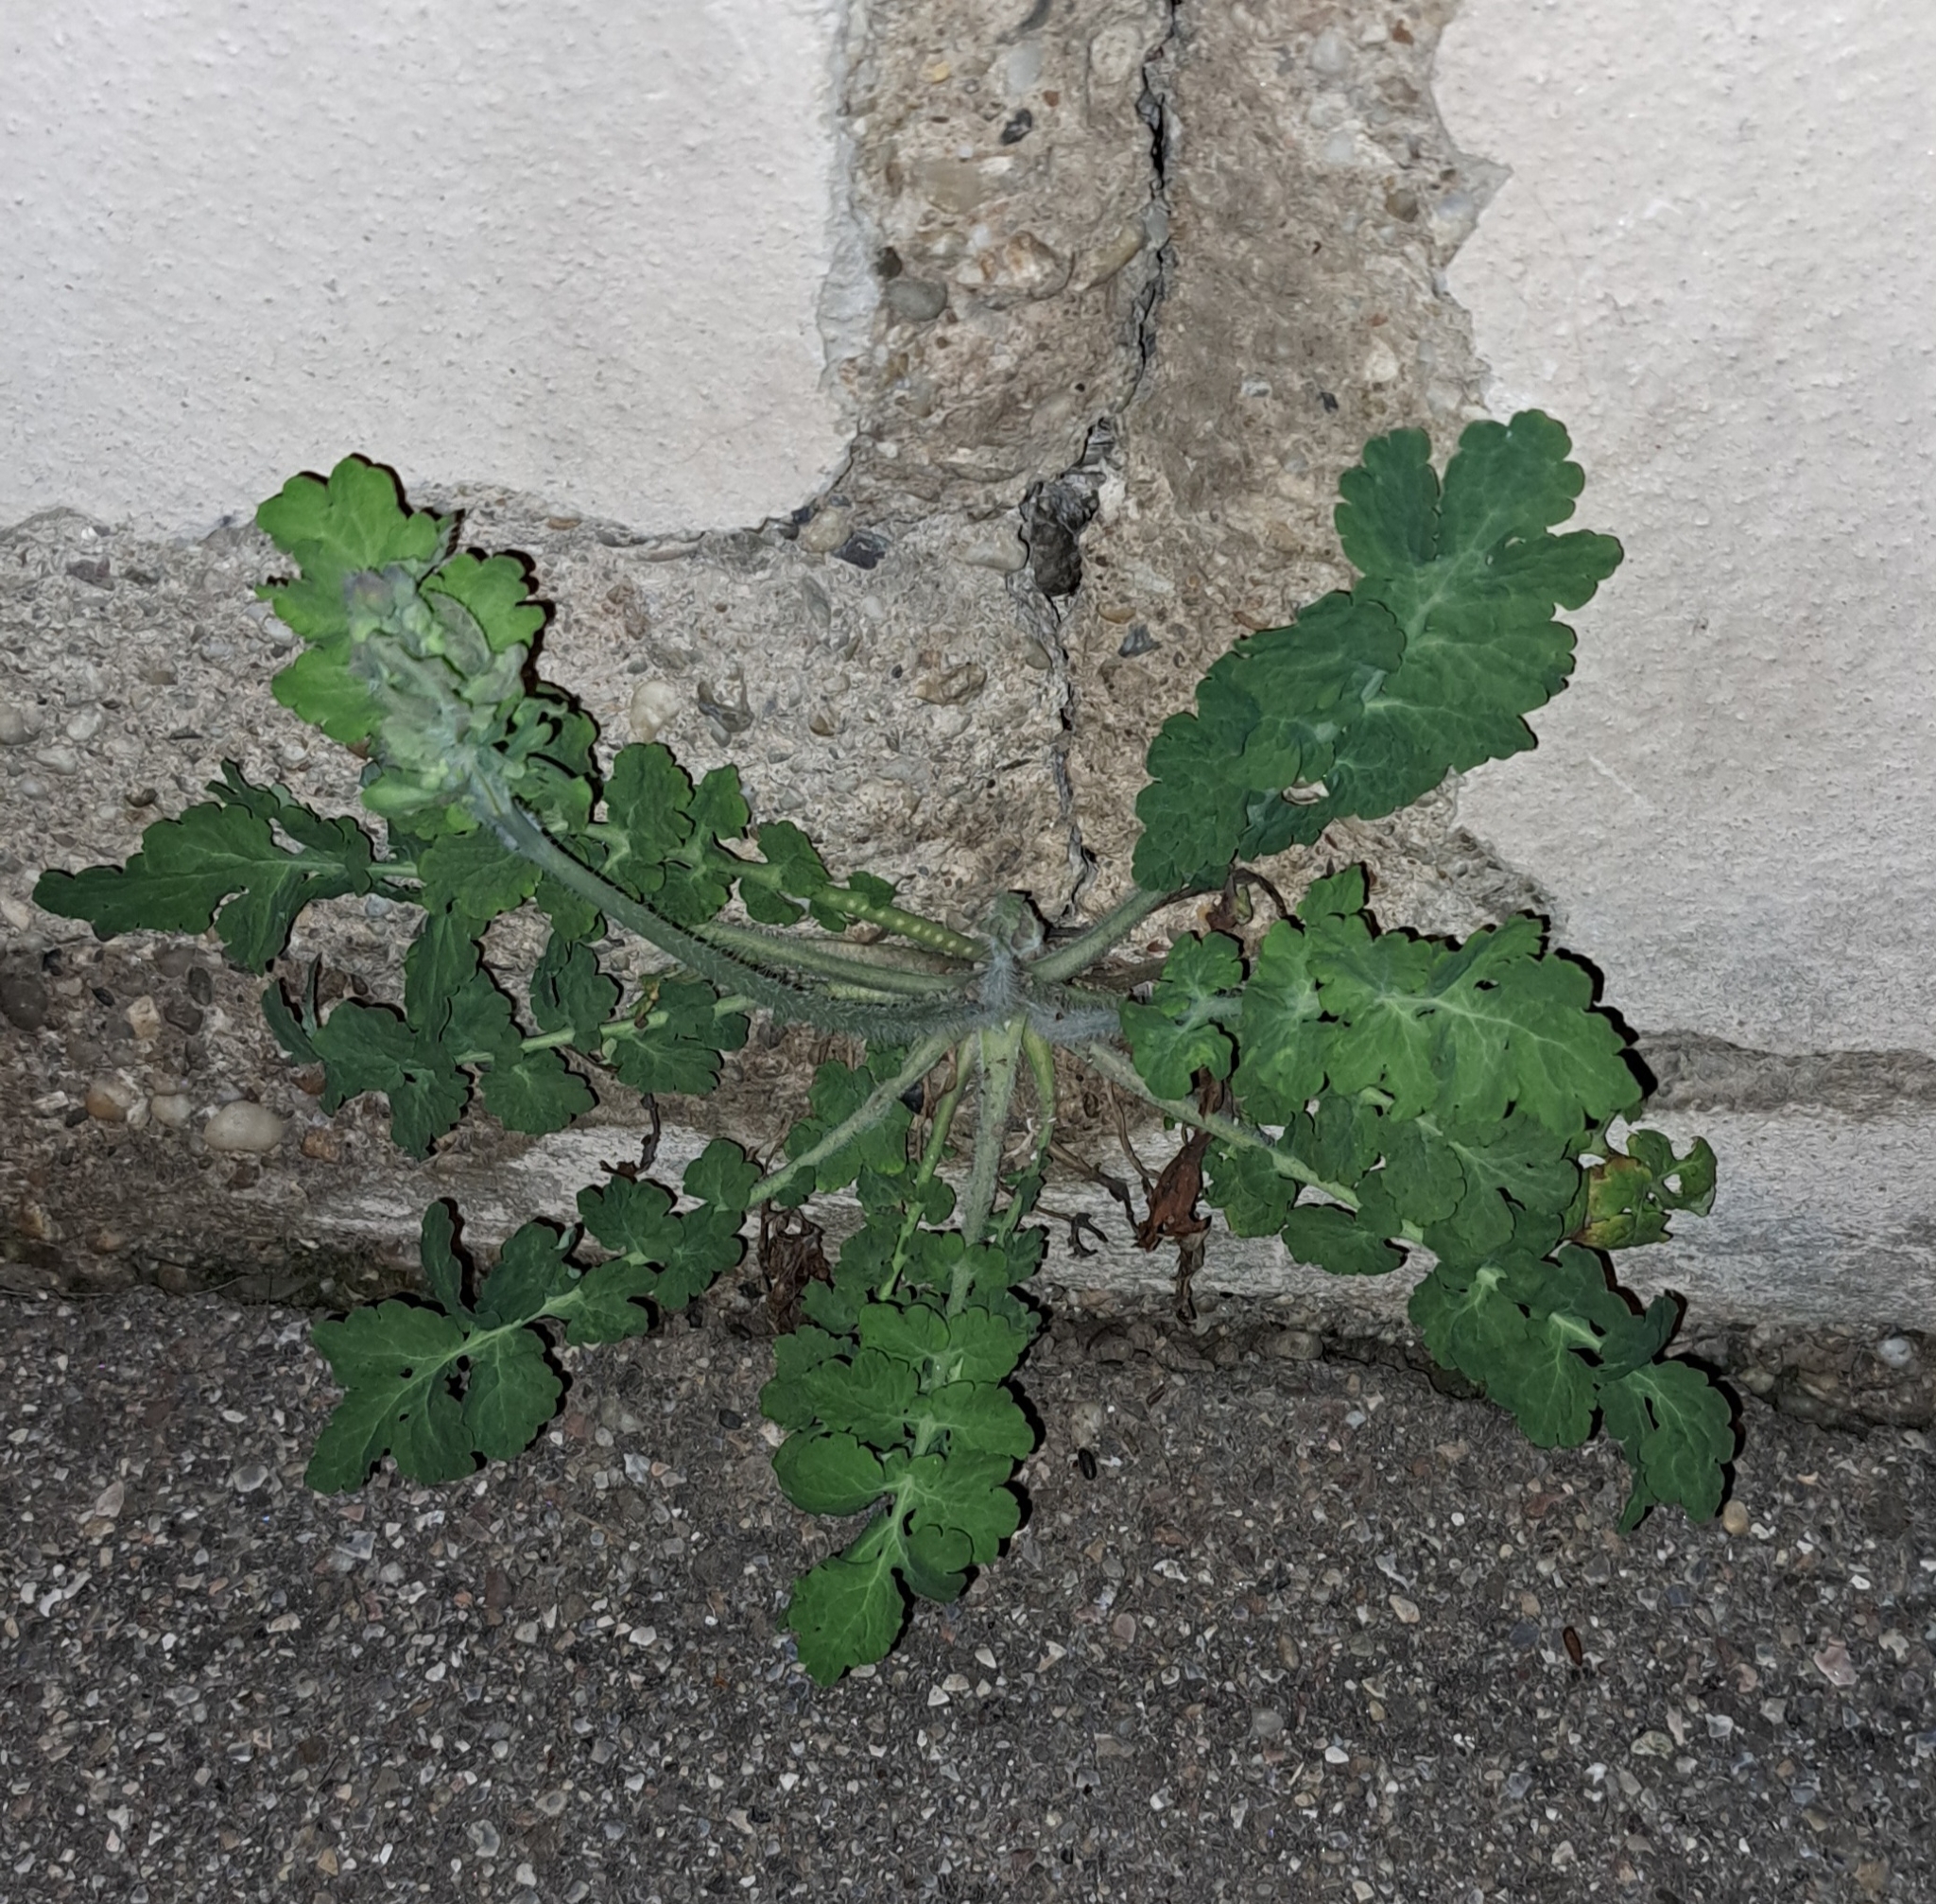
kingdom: Plantae
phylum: Tracheophyta
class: Magnoliopsida
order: Ranunculales
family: Papaveraceae
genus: Chelidonium
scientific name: Chelidonium majus
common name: Greater celandine
